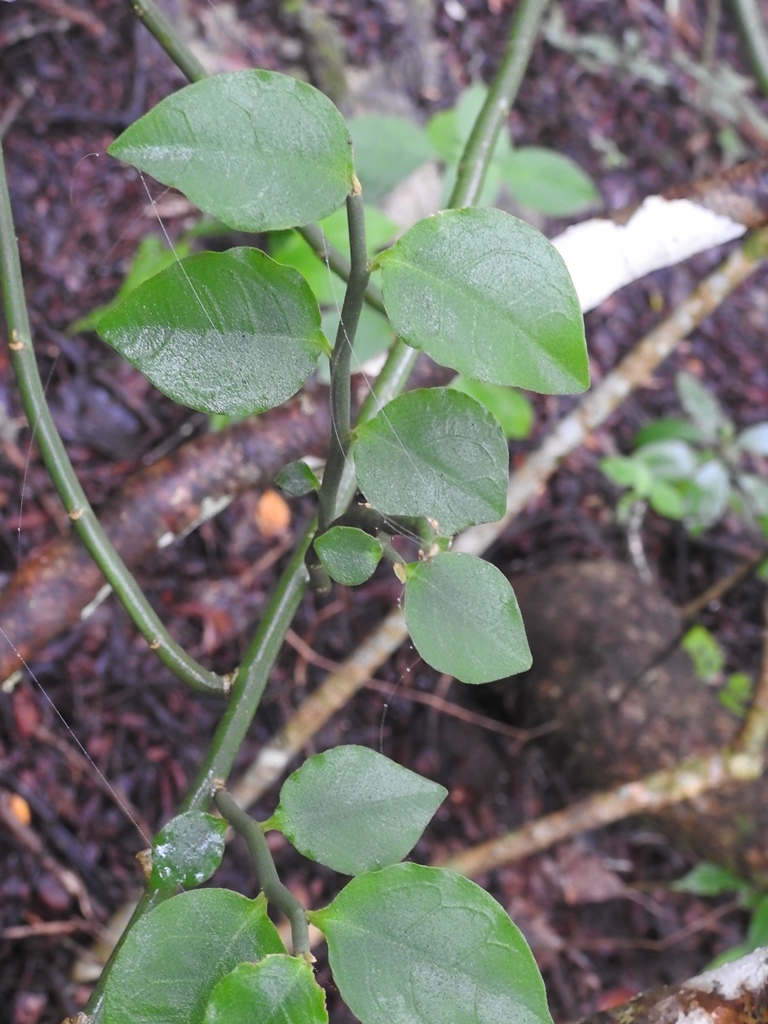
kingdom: Plantae
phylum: Tracheophyta
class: Magnoliopsida
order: Malpighiales
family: Euphorbiaceae
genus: Euphorbia
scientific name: Euphorbia tithymaloides
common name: Slipperplant
